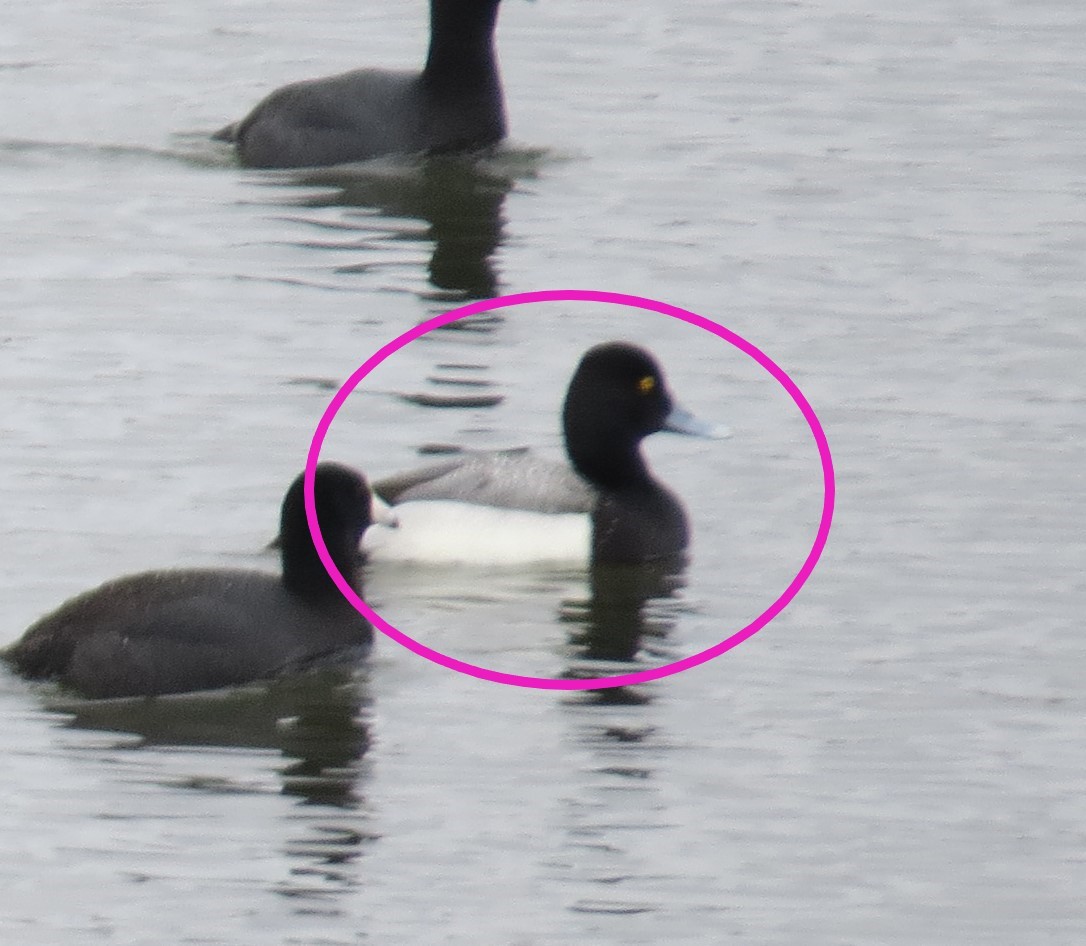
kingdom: Animalia
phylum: Chordata
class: Aves
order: Anseriformes
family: Anatidae
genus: Aythya
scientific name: Aythya affinis
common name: Lesser scaup
